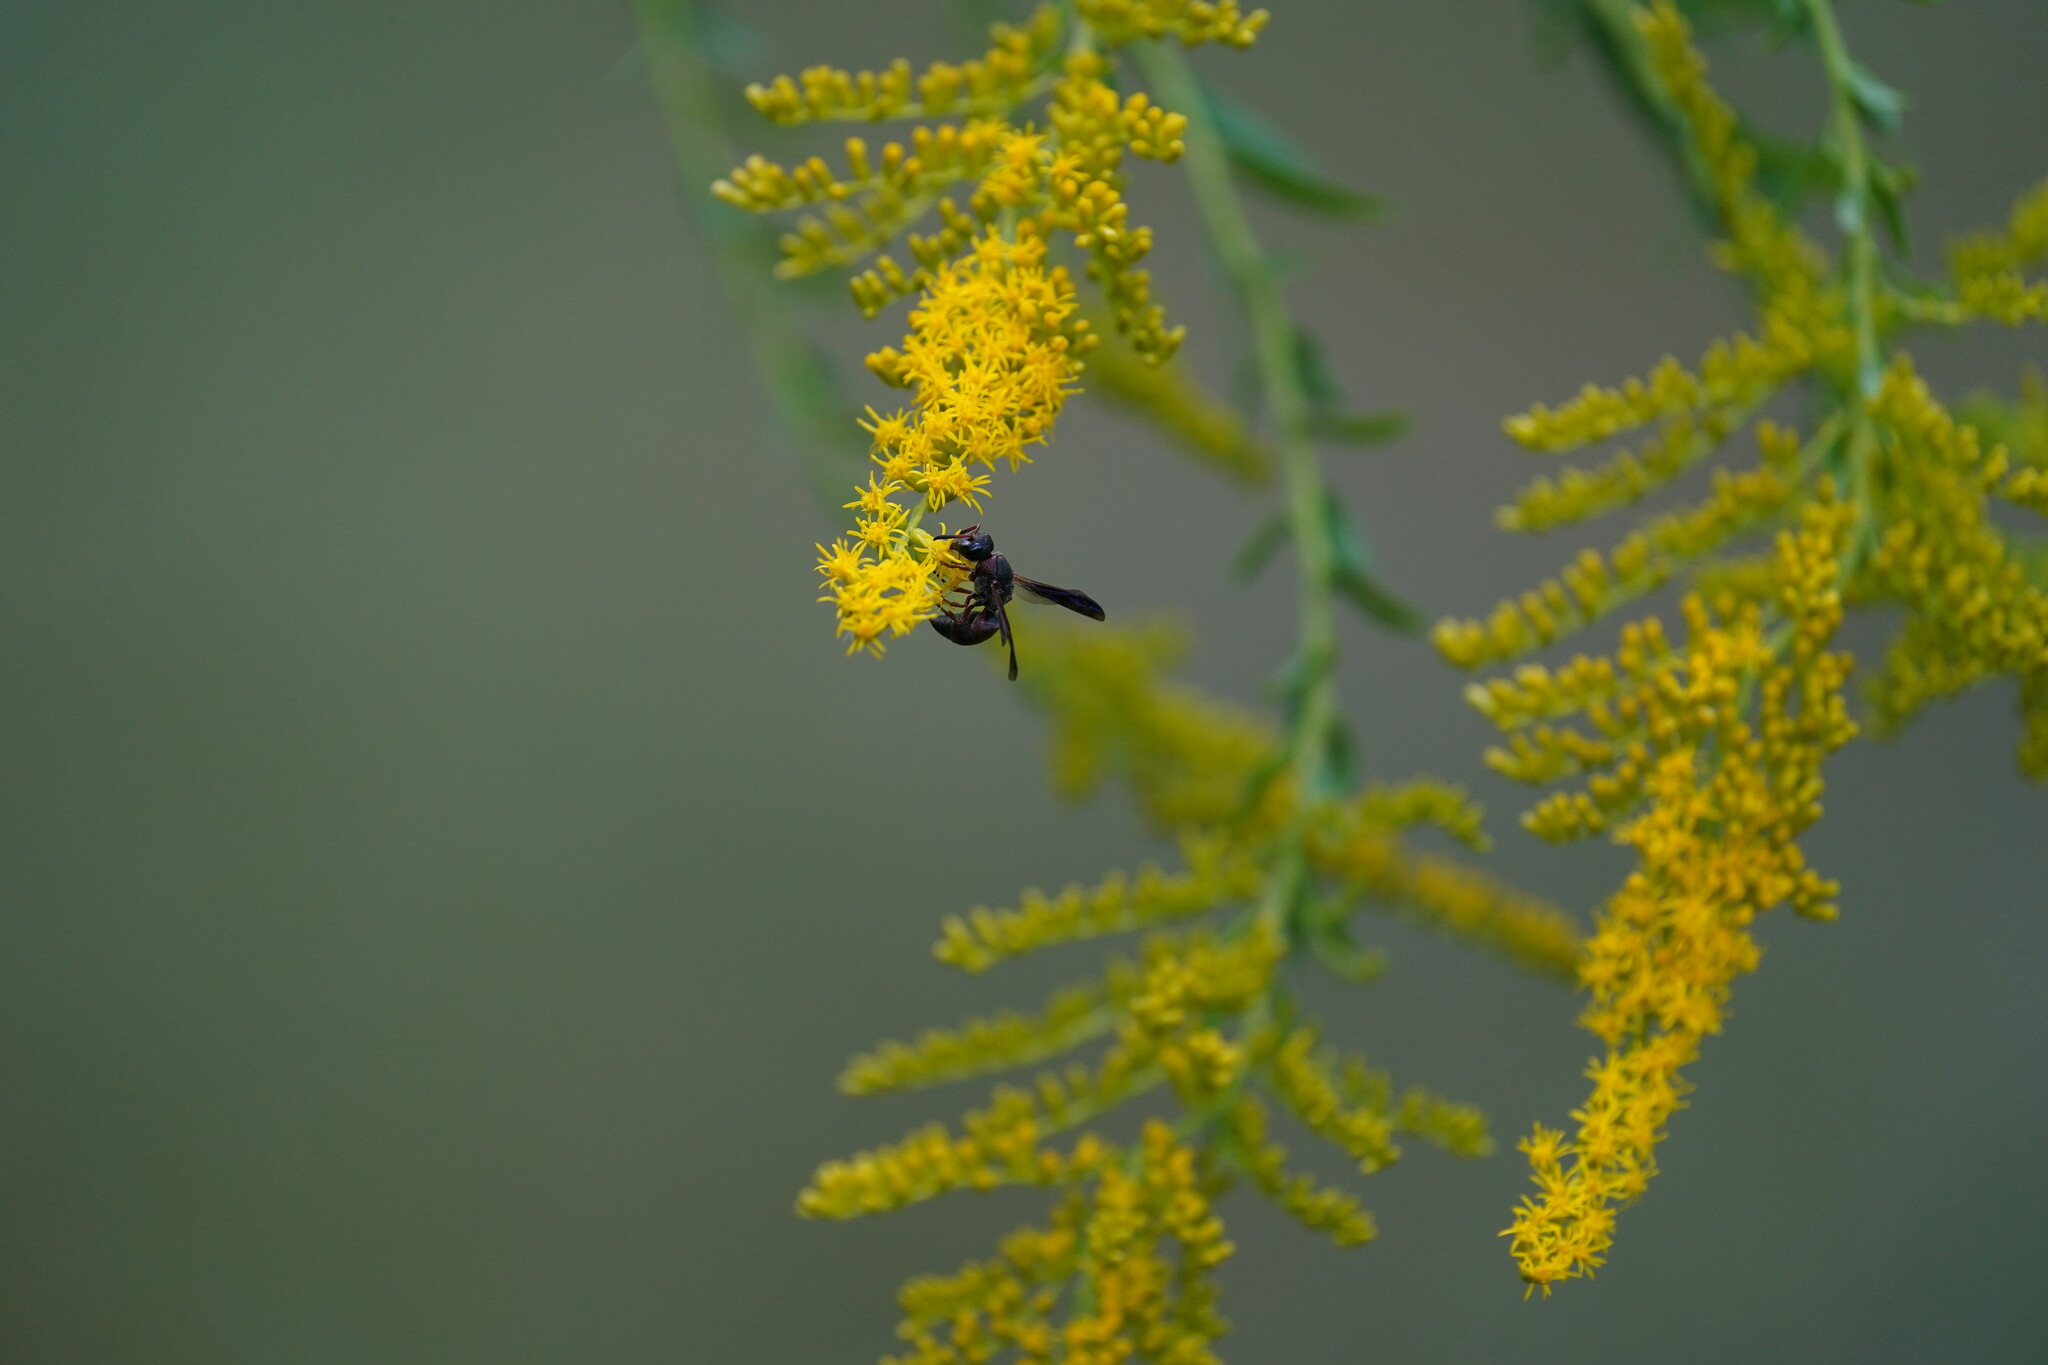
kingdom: Animalia
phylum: Arthropoda
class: Insecta
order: Hymenoptera
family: Eumenidae
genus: Pachodynerus
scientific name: Pachodynerus erynnis
